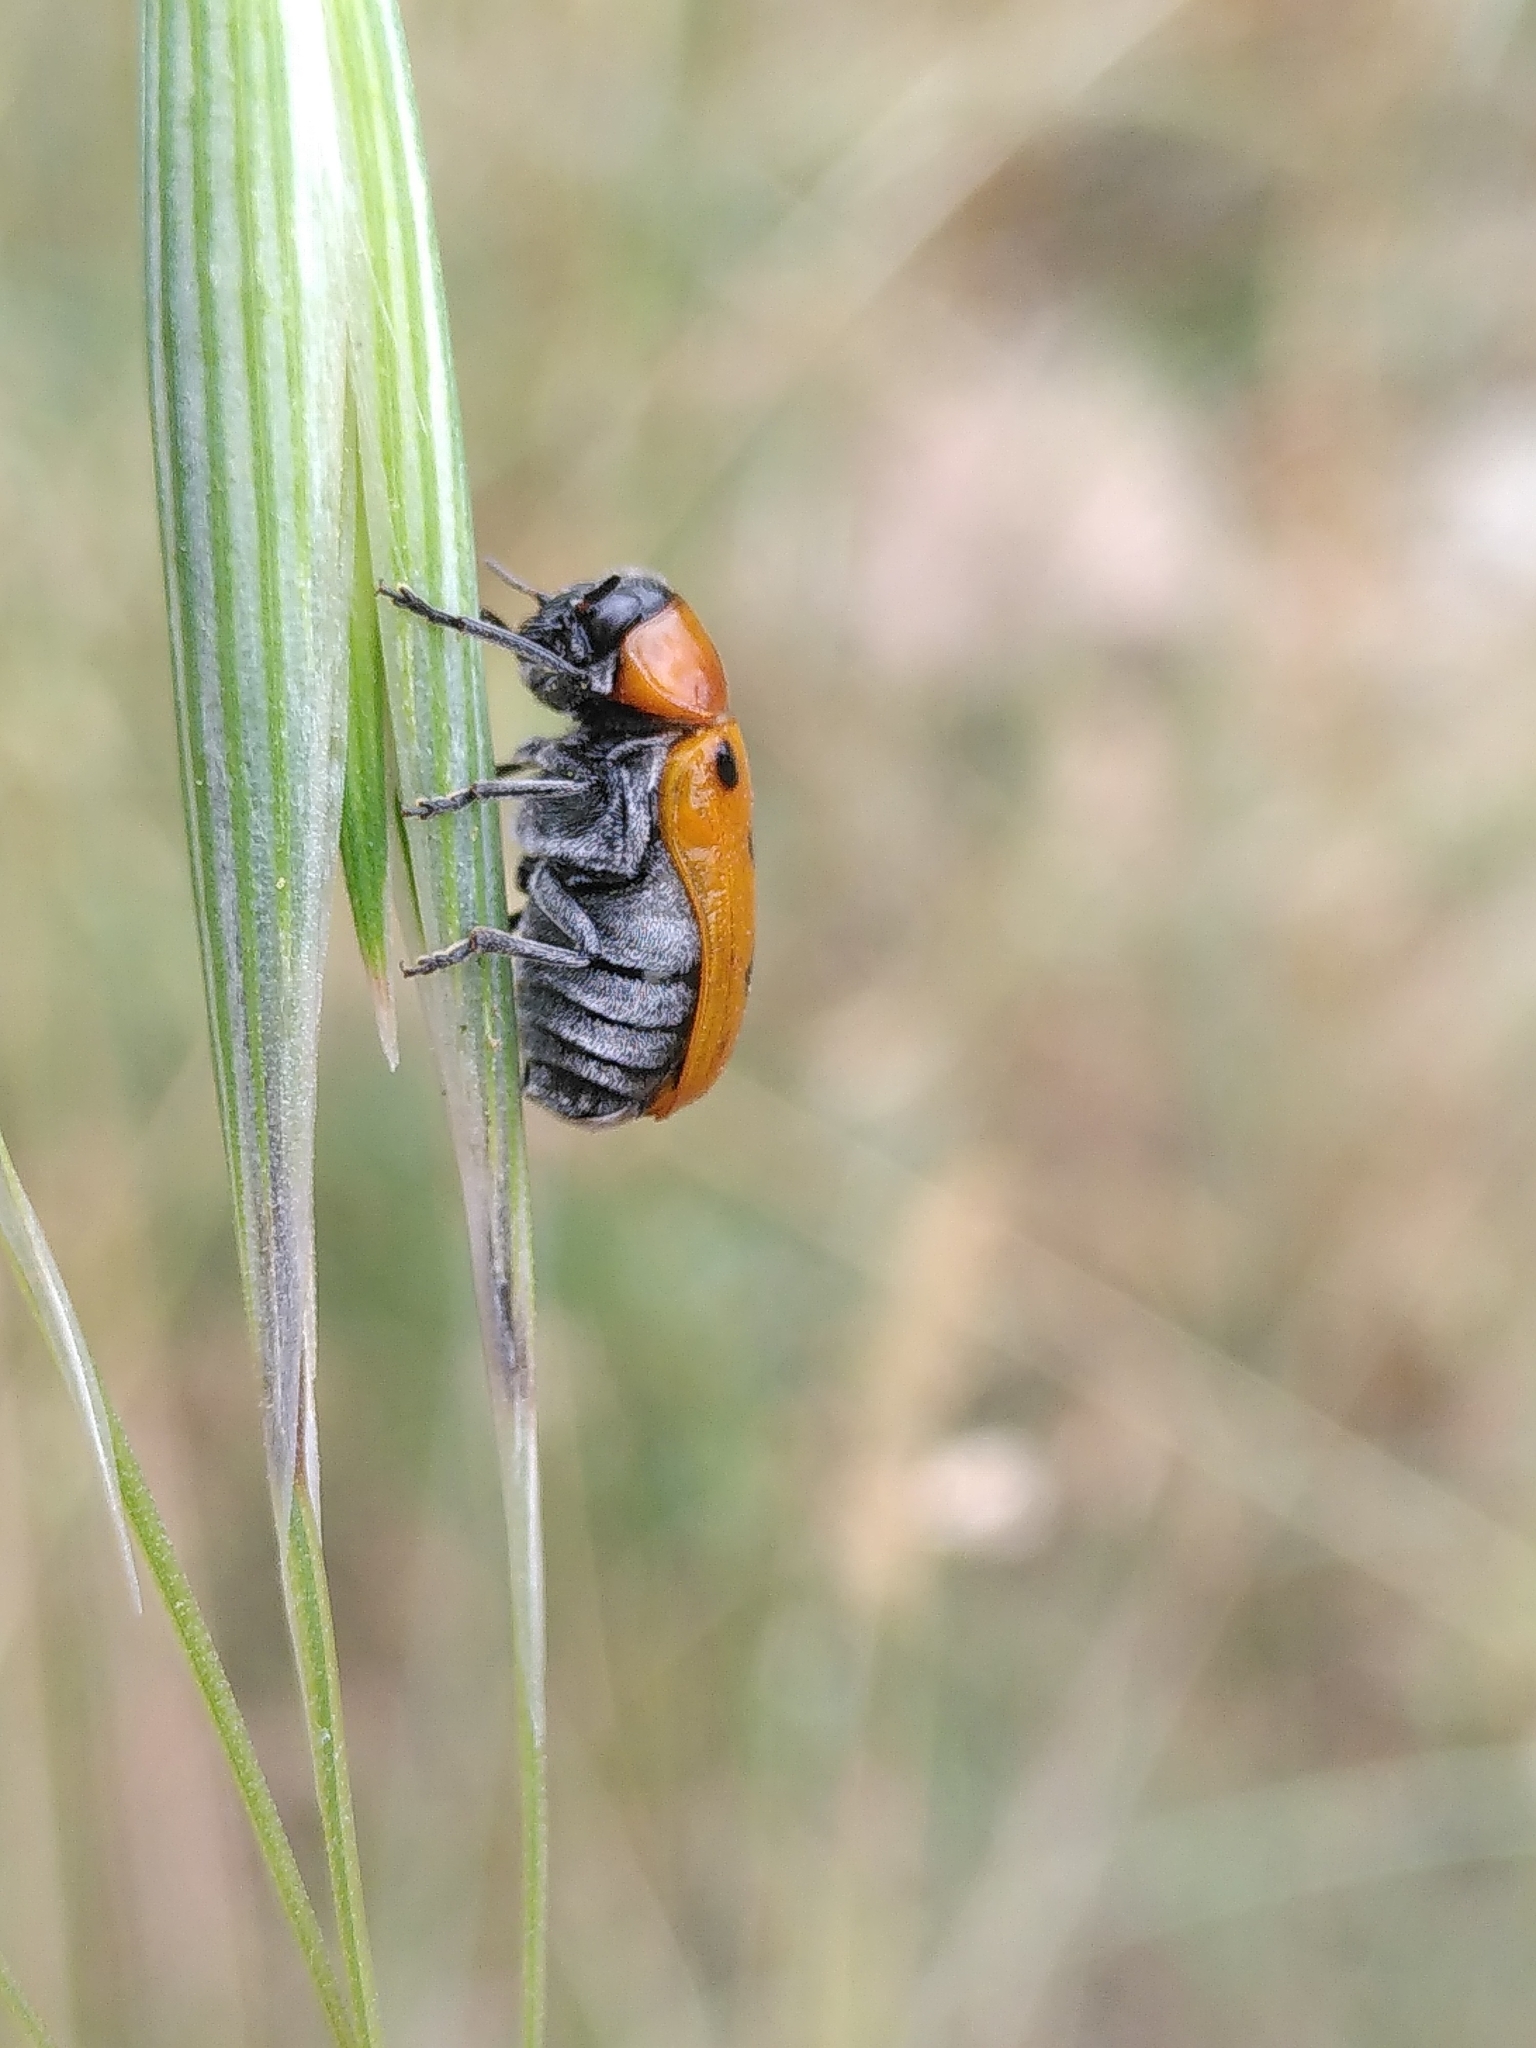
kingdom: Animalia
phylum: Arthropoda
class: Insecta
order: Coleoptera
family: Chrysomelidae
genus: Tituboea
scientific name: Tituboea biguttata
